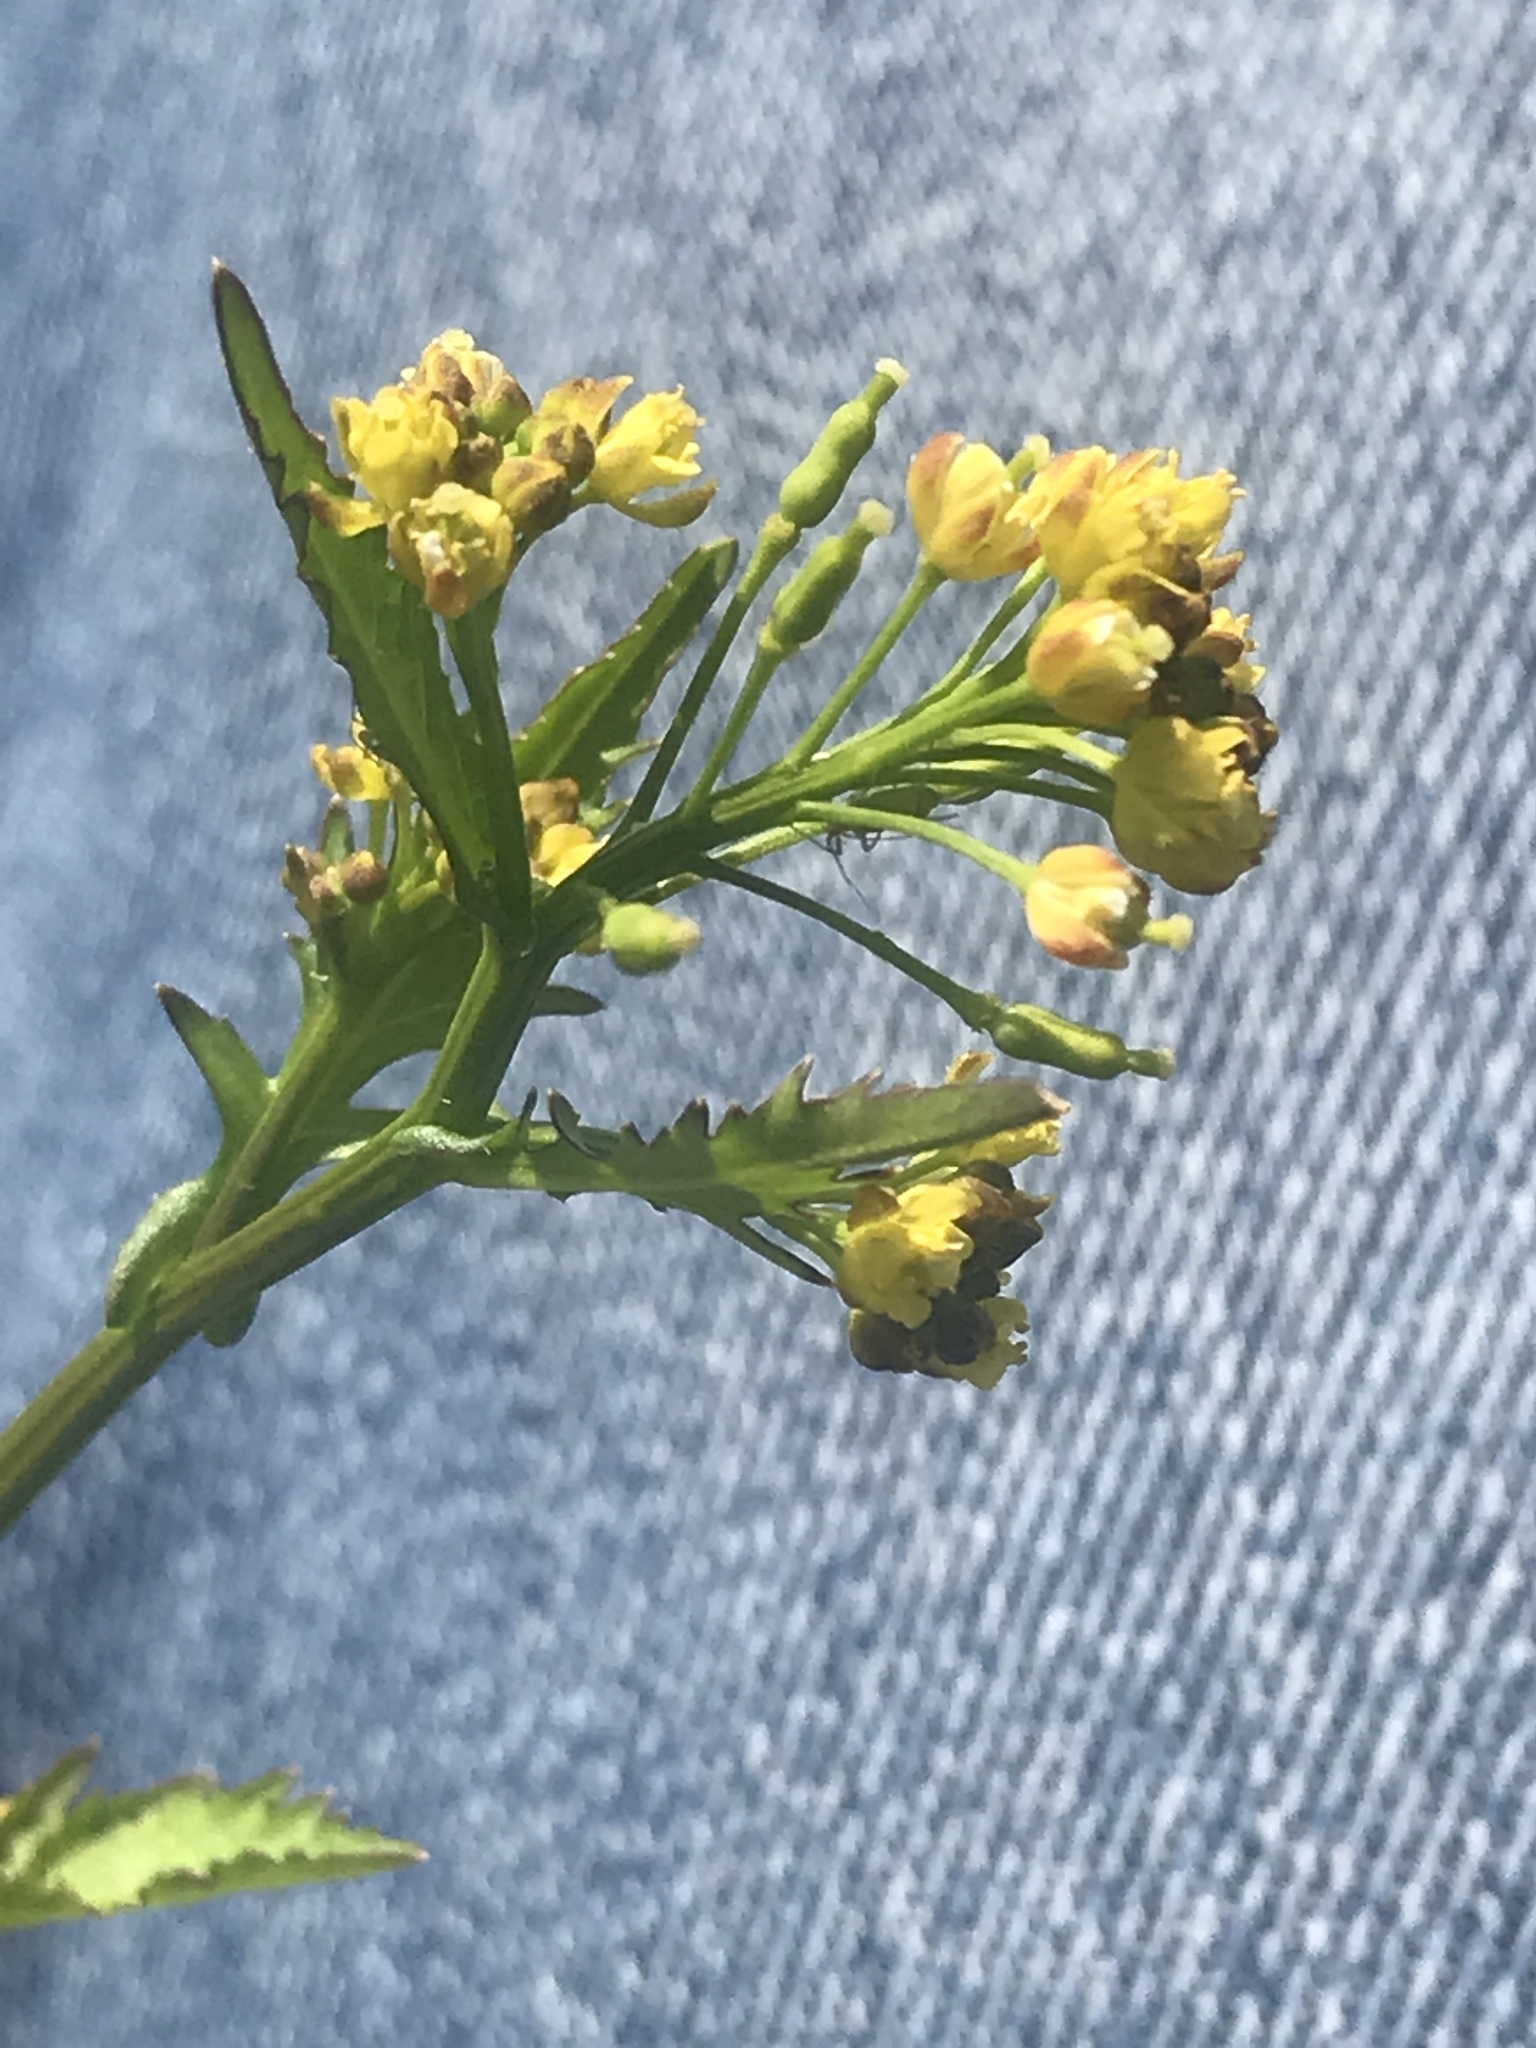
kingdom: Plantae
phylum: Tracheophyta
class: Magnoliopsida
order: Brassicales
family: Brassicaceae
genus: Rorippa
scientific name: Rorippa palustris
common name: Marsh yellow-cress
